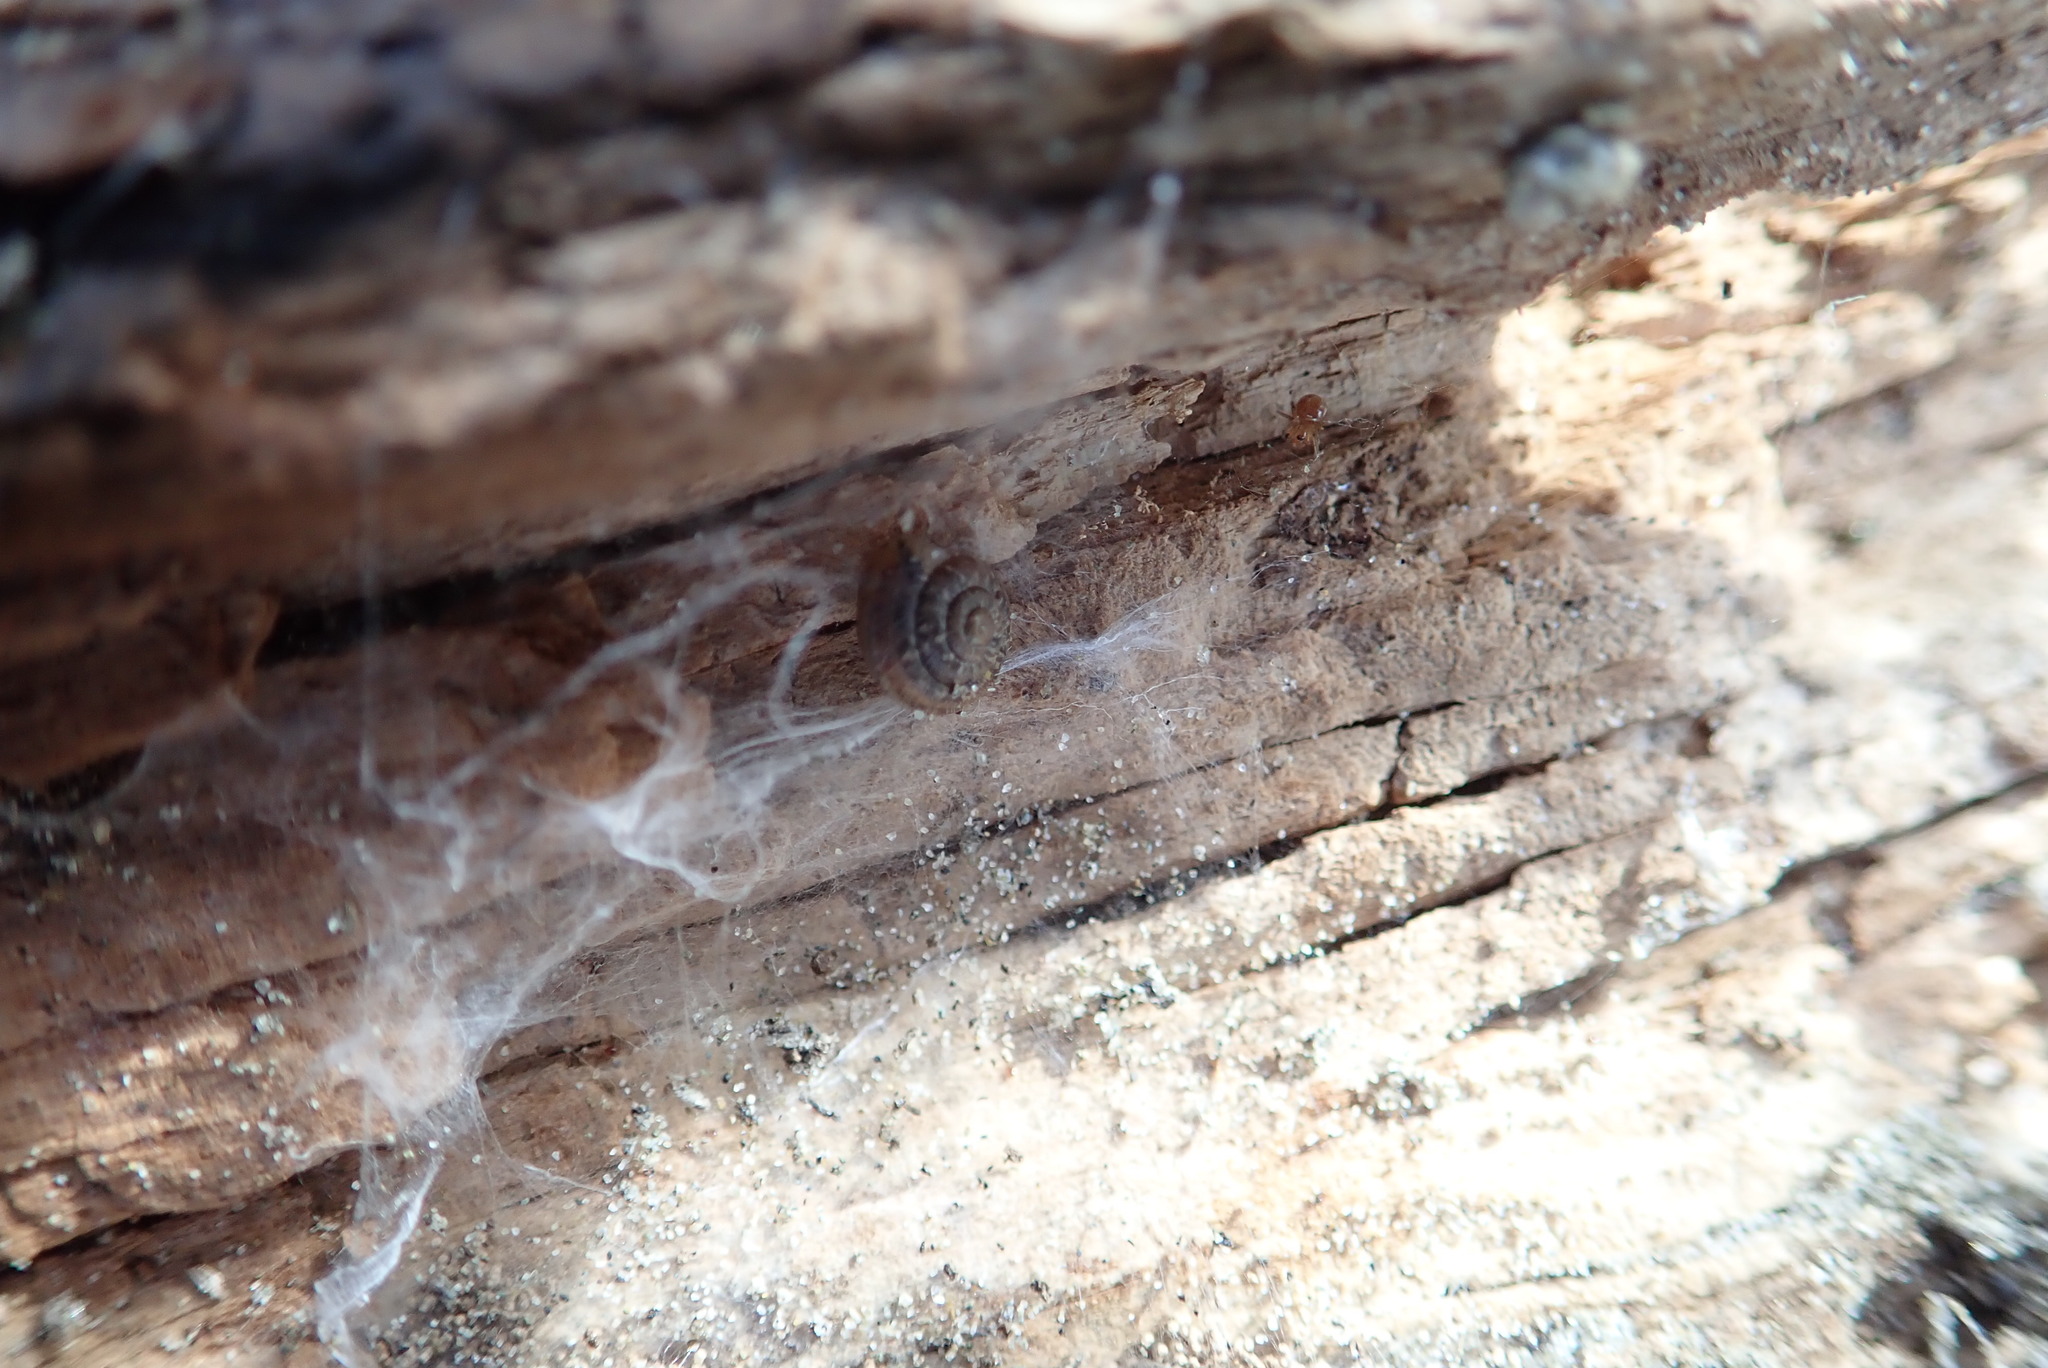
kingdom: Animalia
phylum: Mollusca
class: Gastropoda
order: Stylommatophora
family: Geomitridae
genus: Xeroplexa
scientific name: Xeroplexa intersecta
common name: Wrinkled snail
